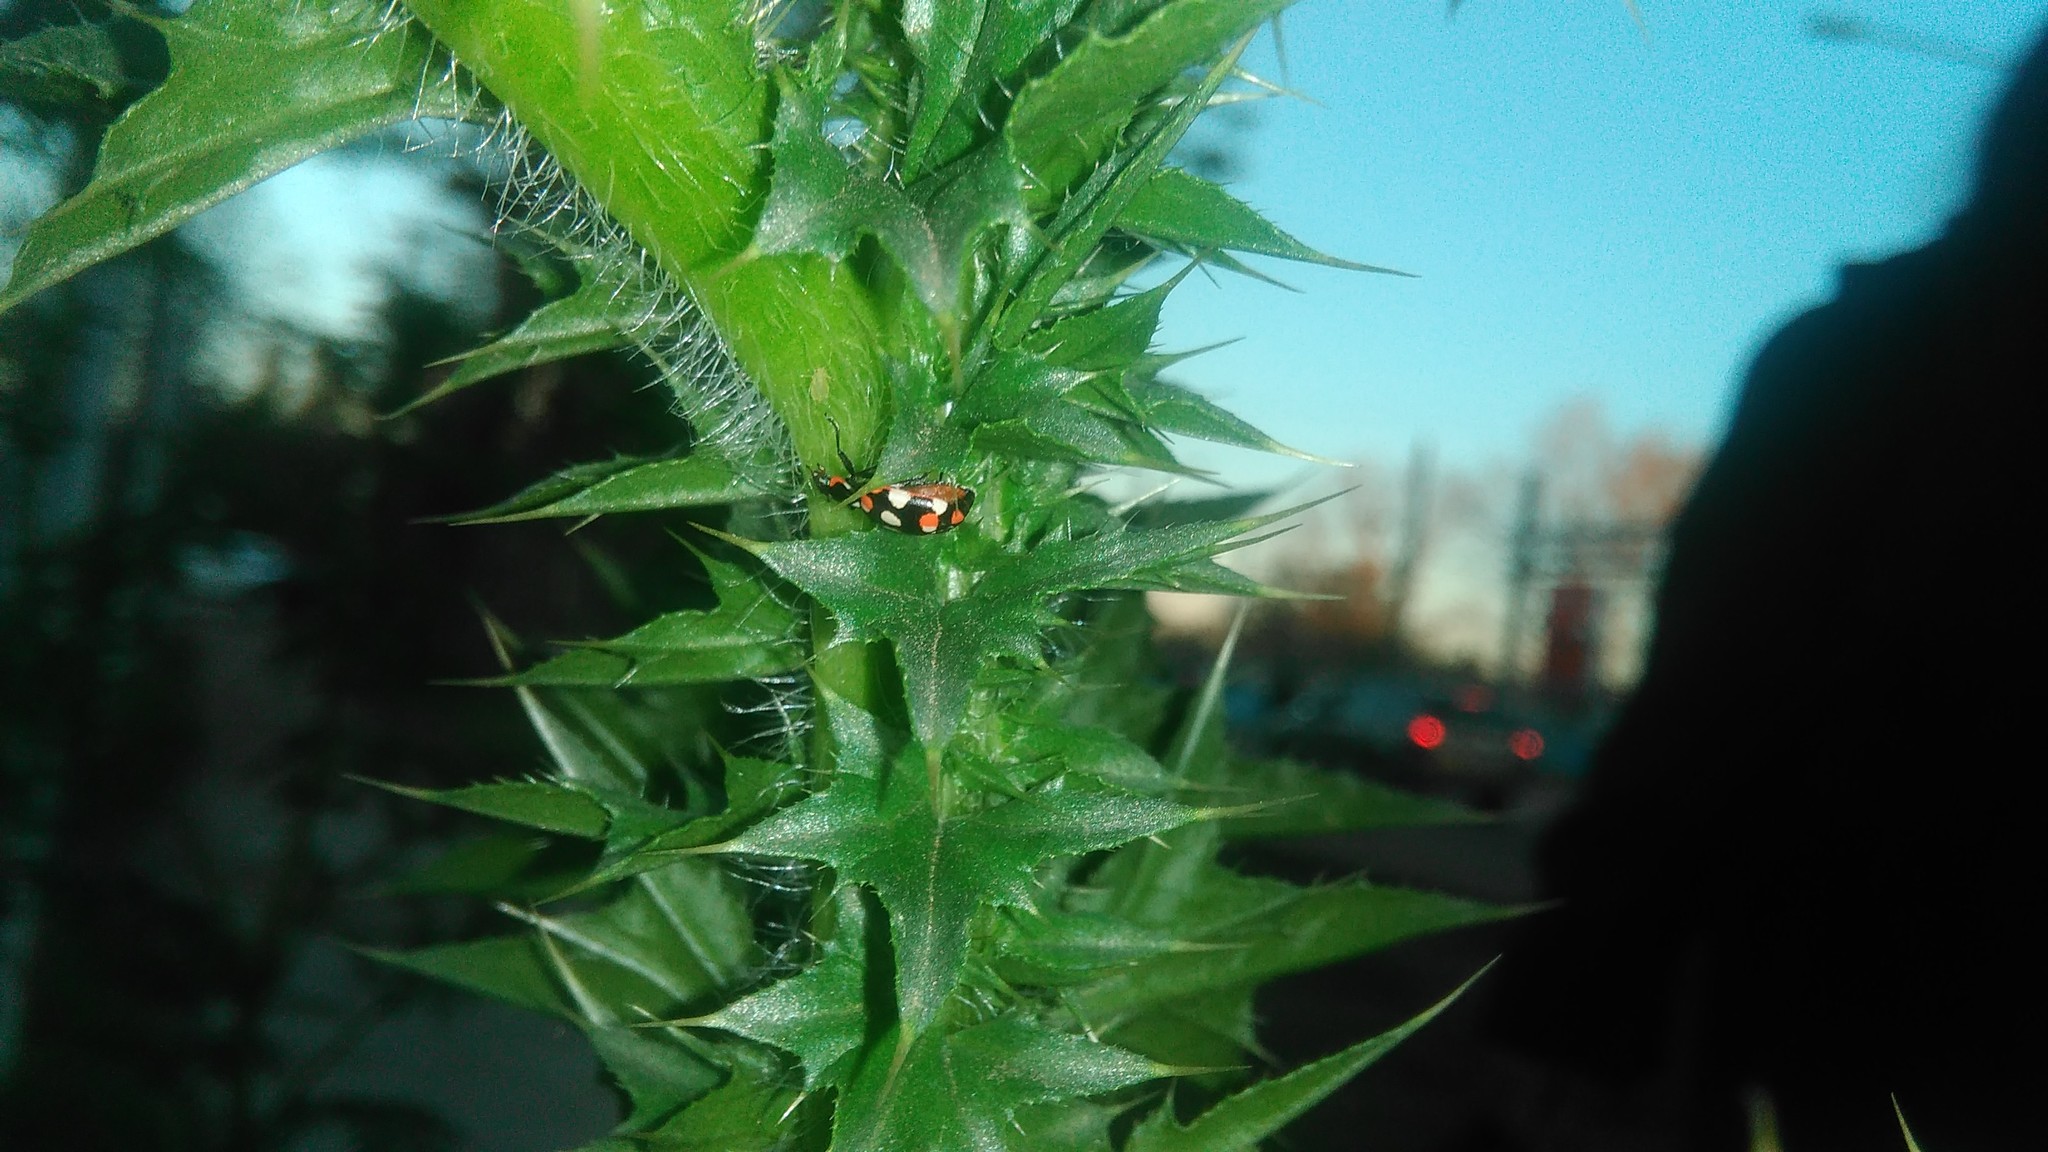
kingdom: Animalia
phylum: Arthropoda
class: Insecta
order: Coleoptera
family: Coccinellidae
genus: Eriopis
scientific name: Eriopis connexa
